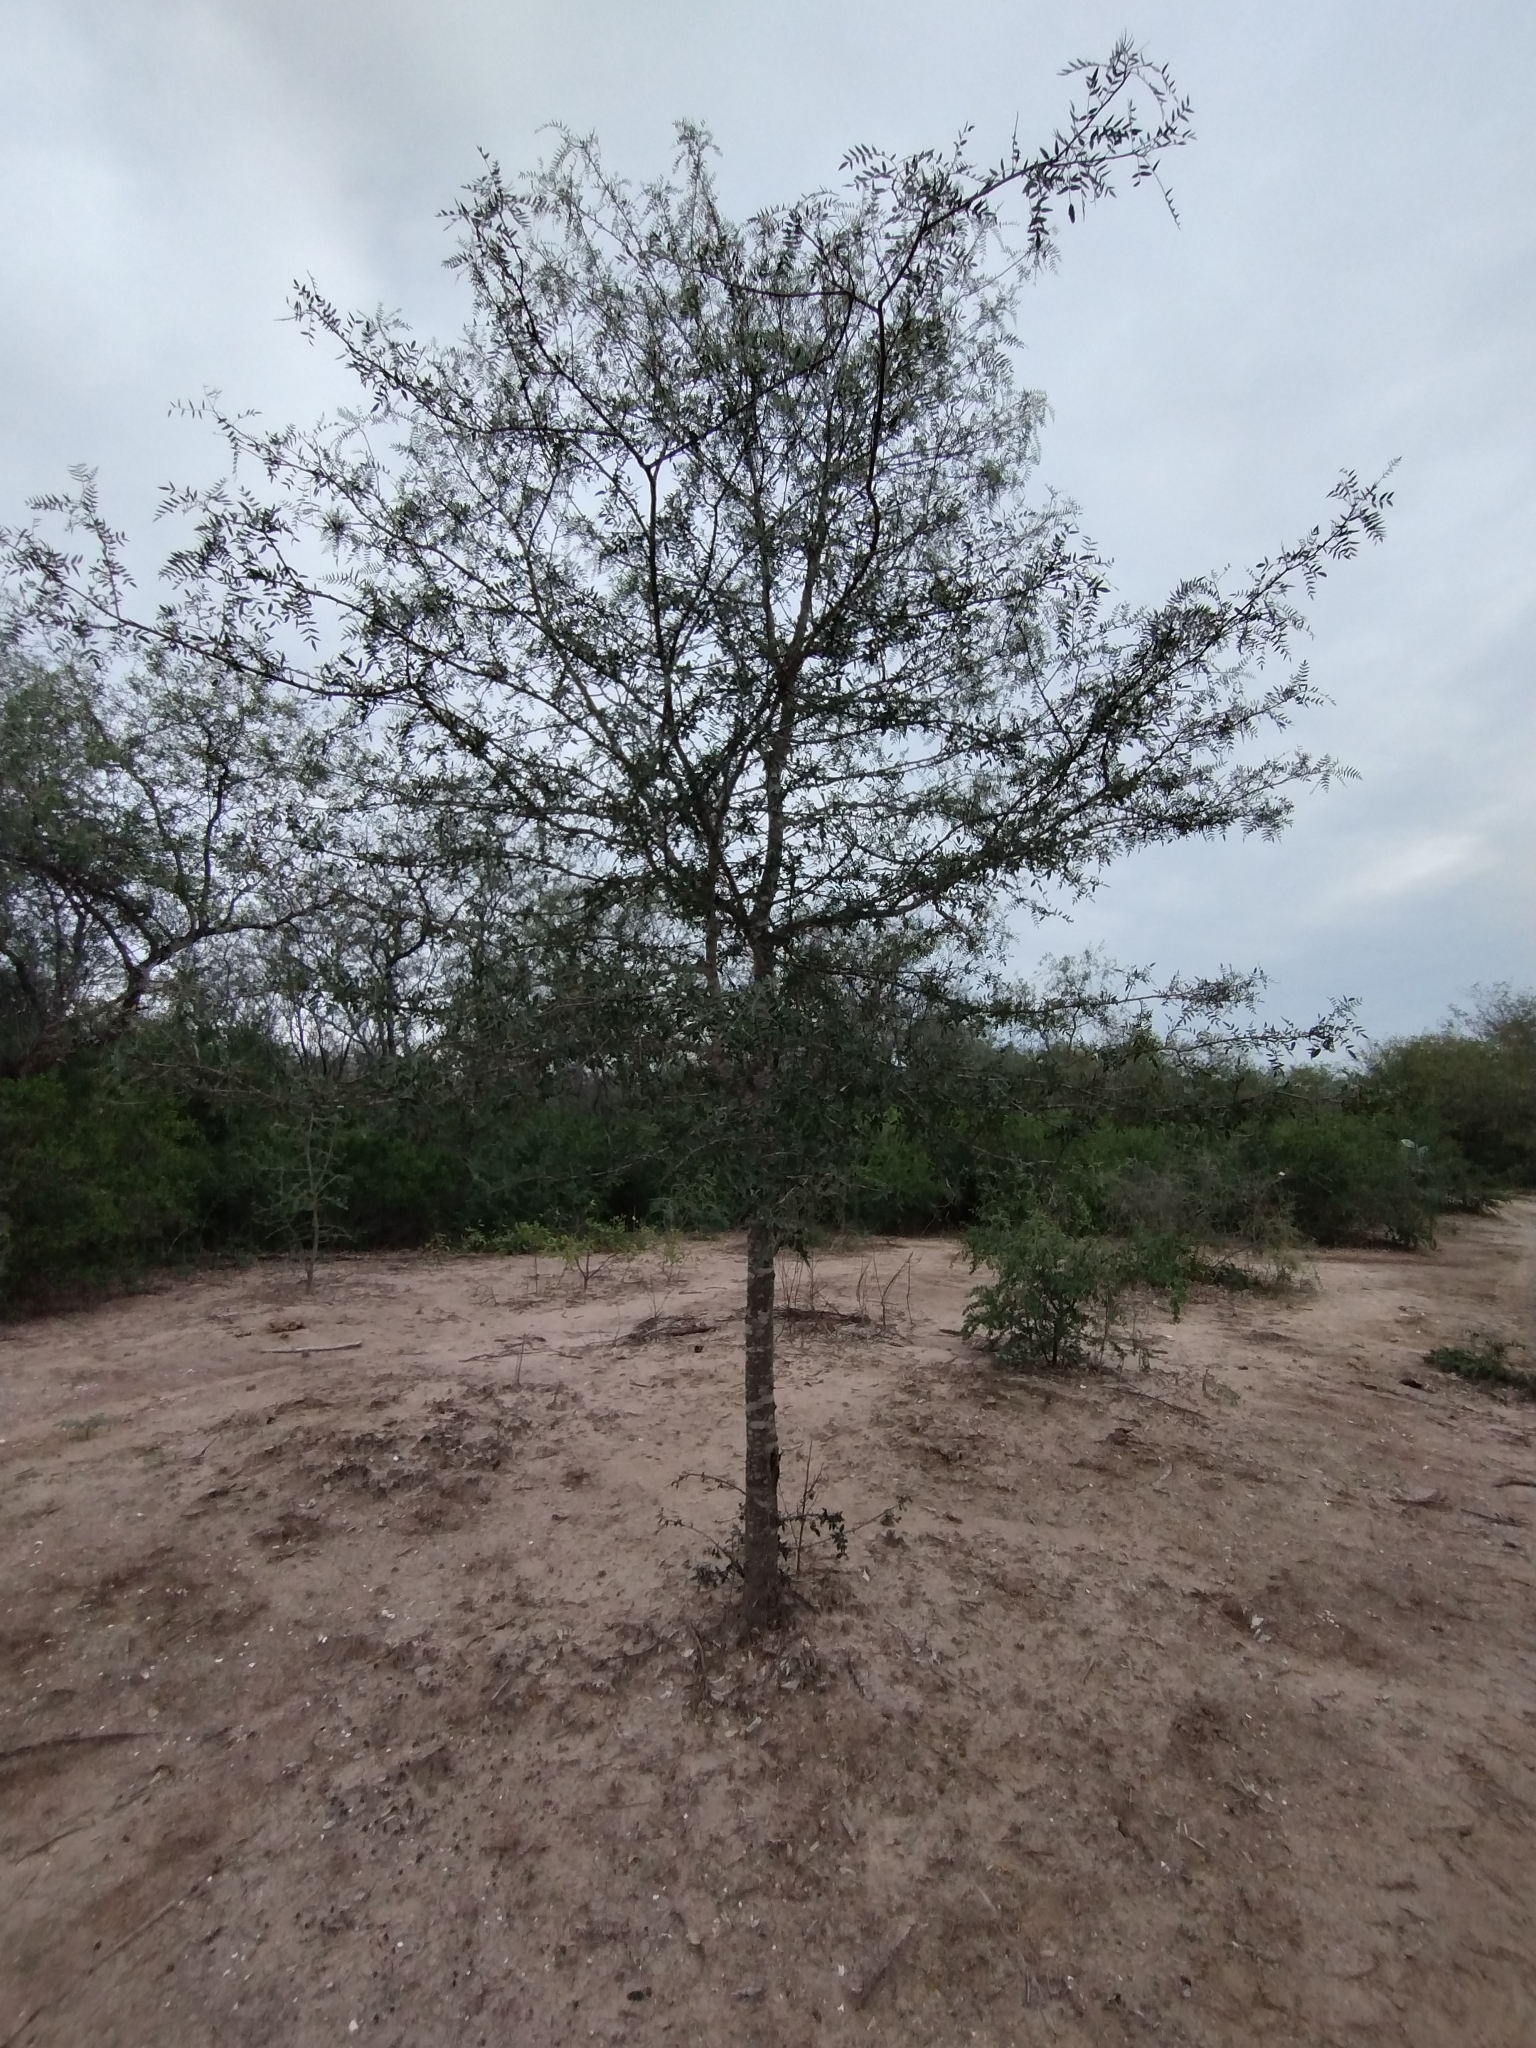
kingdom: Plantae
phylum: Tracheophyta
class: Magnoliopsida
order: Sapindales
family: Anacardiaceae
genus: Schinopsis
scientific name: Schinopsis lorentzii
